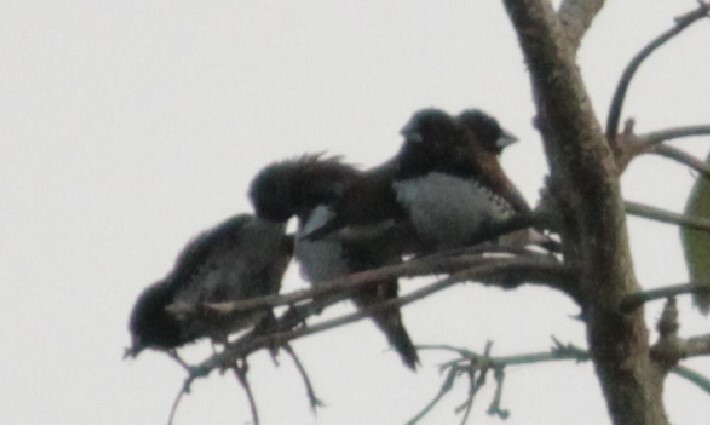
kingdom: Animalia
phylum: Chordata
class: Aves
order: Passeriformes
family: Estrildidae
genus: Lonchura
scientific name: Lonchura nigriceps
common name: Red-backed mannikin
